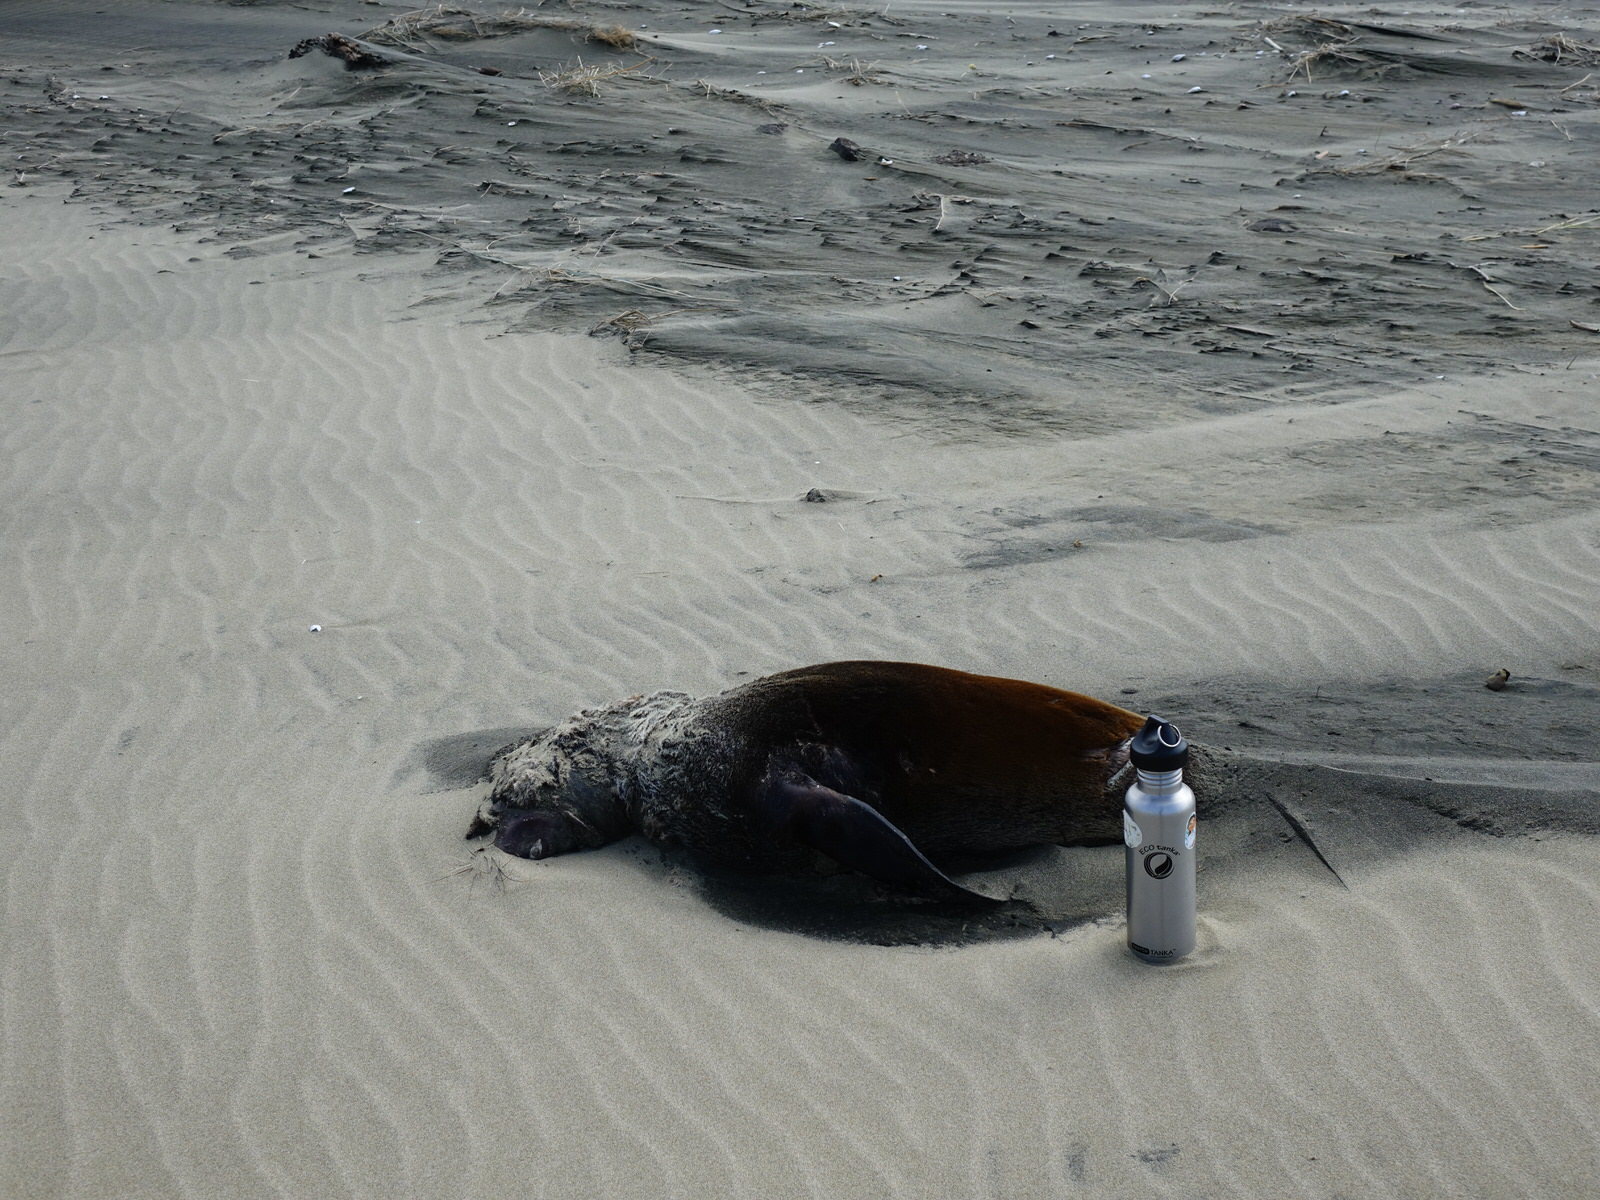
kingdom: Animalia
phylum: Chordata
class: Mammalia
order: Carnivora
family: Otariidae
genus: Arctocephalus
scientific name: Arctocephalus forsteri
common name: New zealand fur seal
